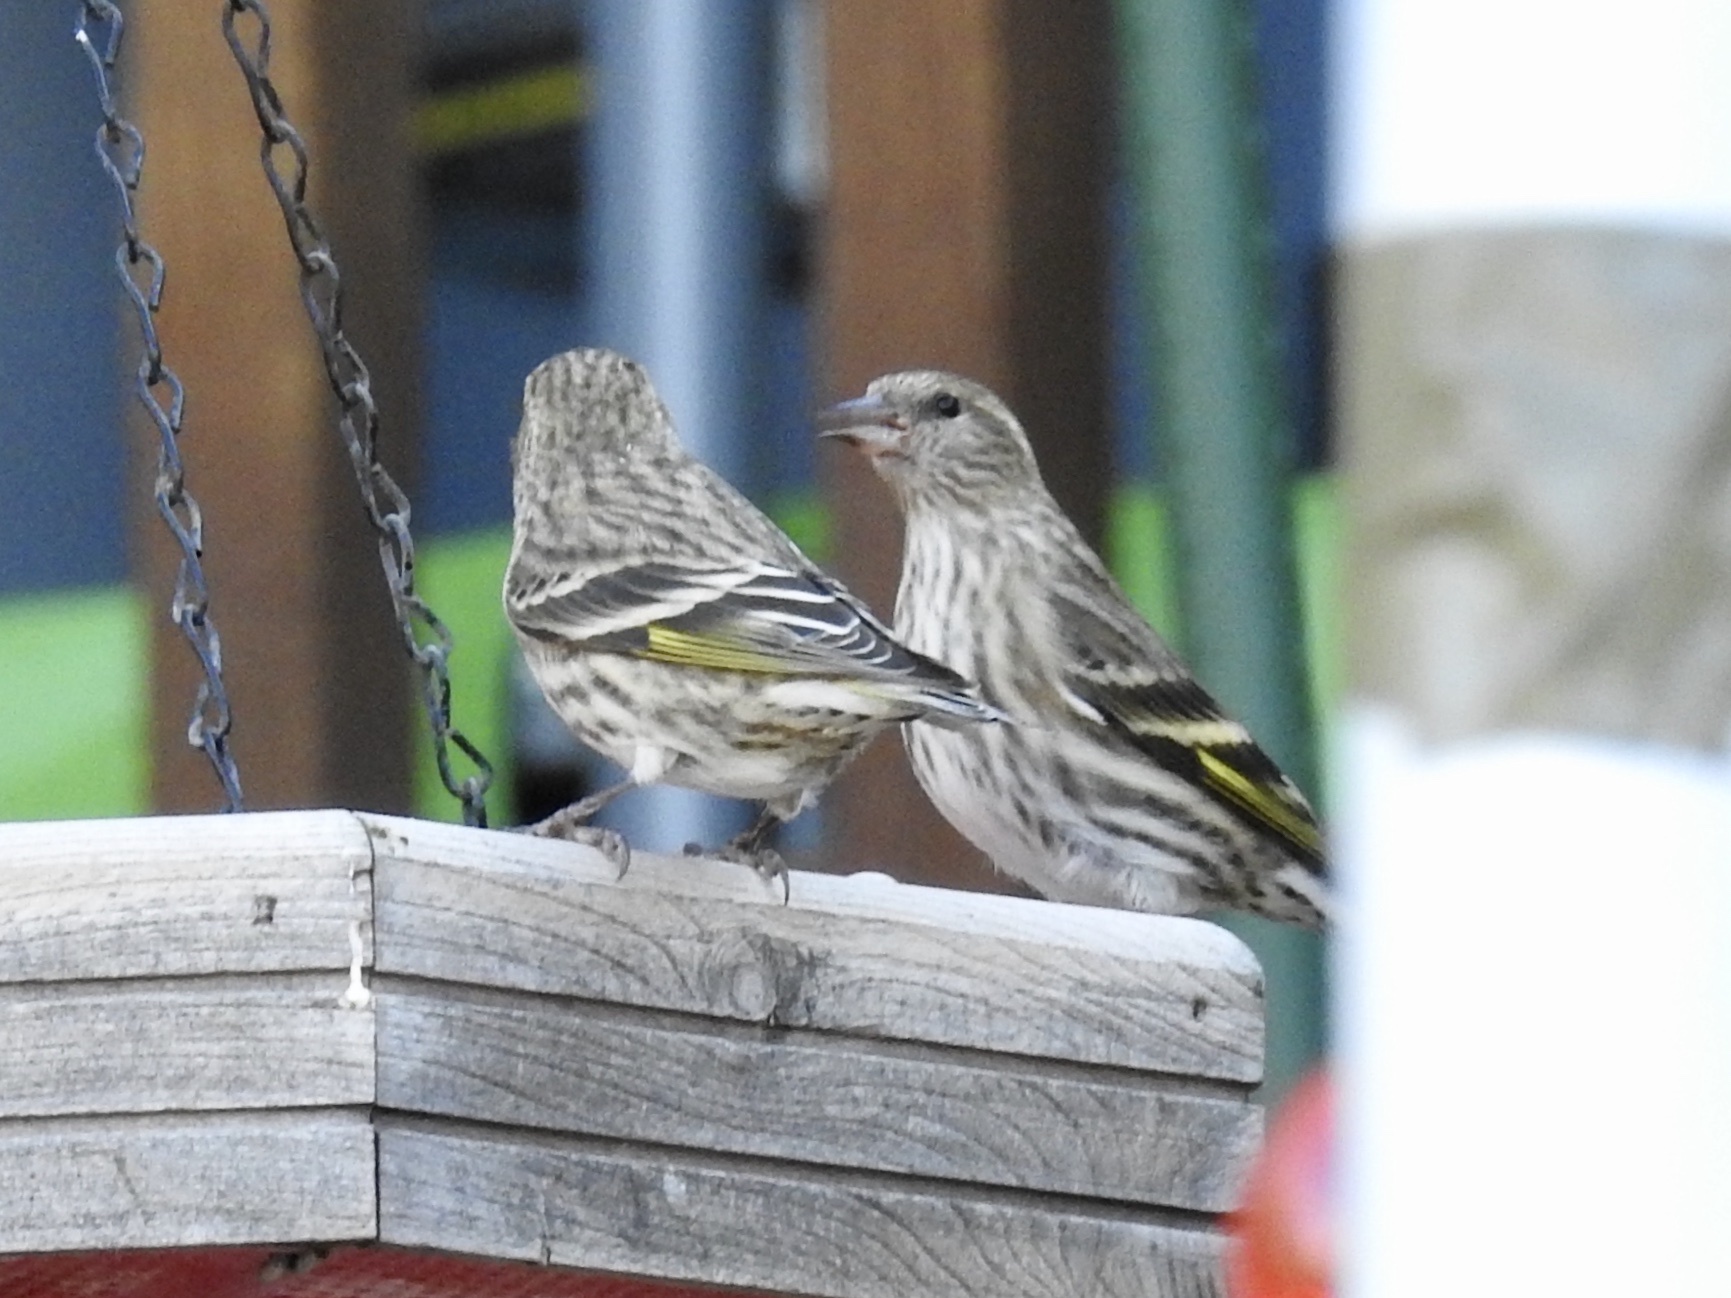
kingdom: Animalia
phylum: Chordata
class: Aves
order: Passeriformes
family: Fringillidae
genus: Spinus
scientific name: Spinus pinus
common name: Pine siskin
